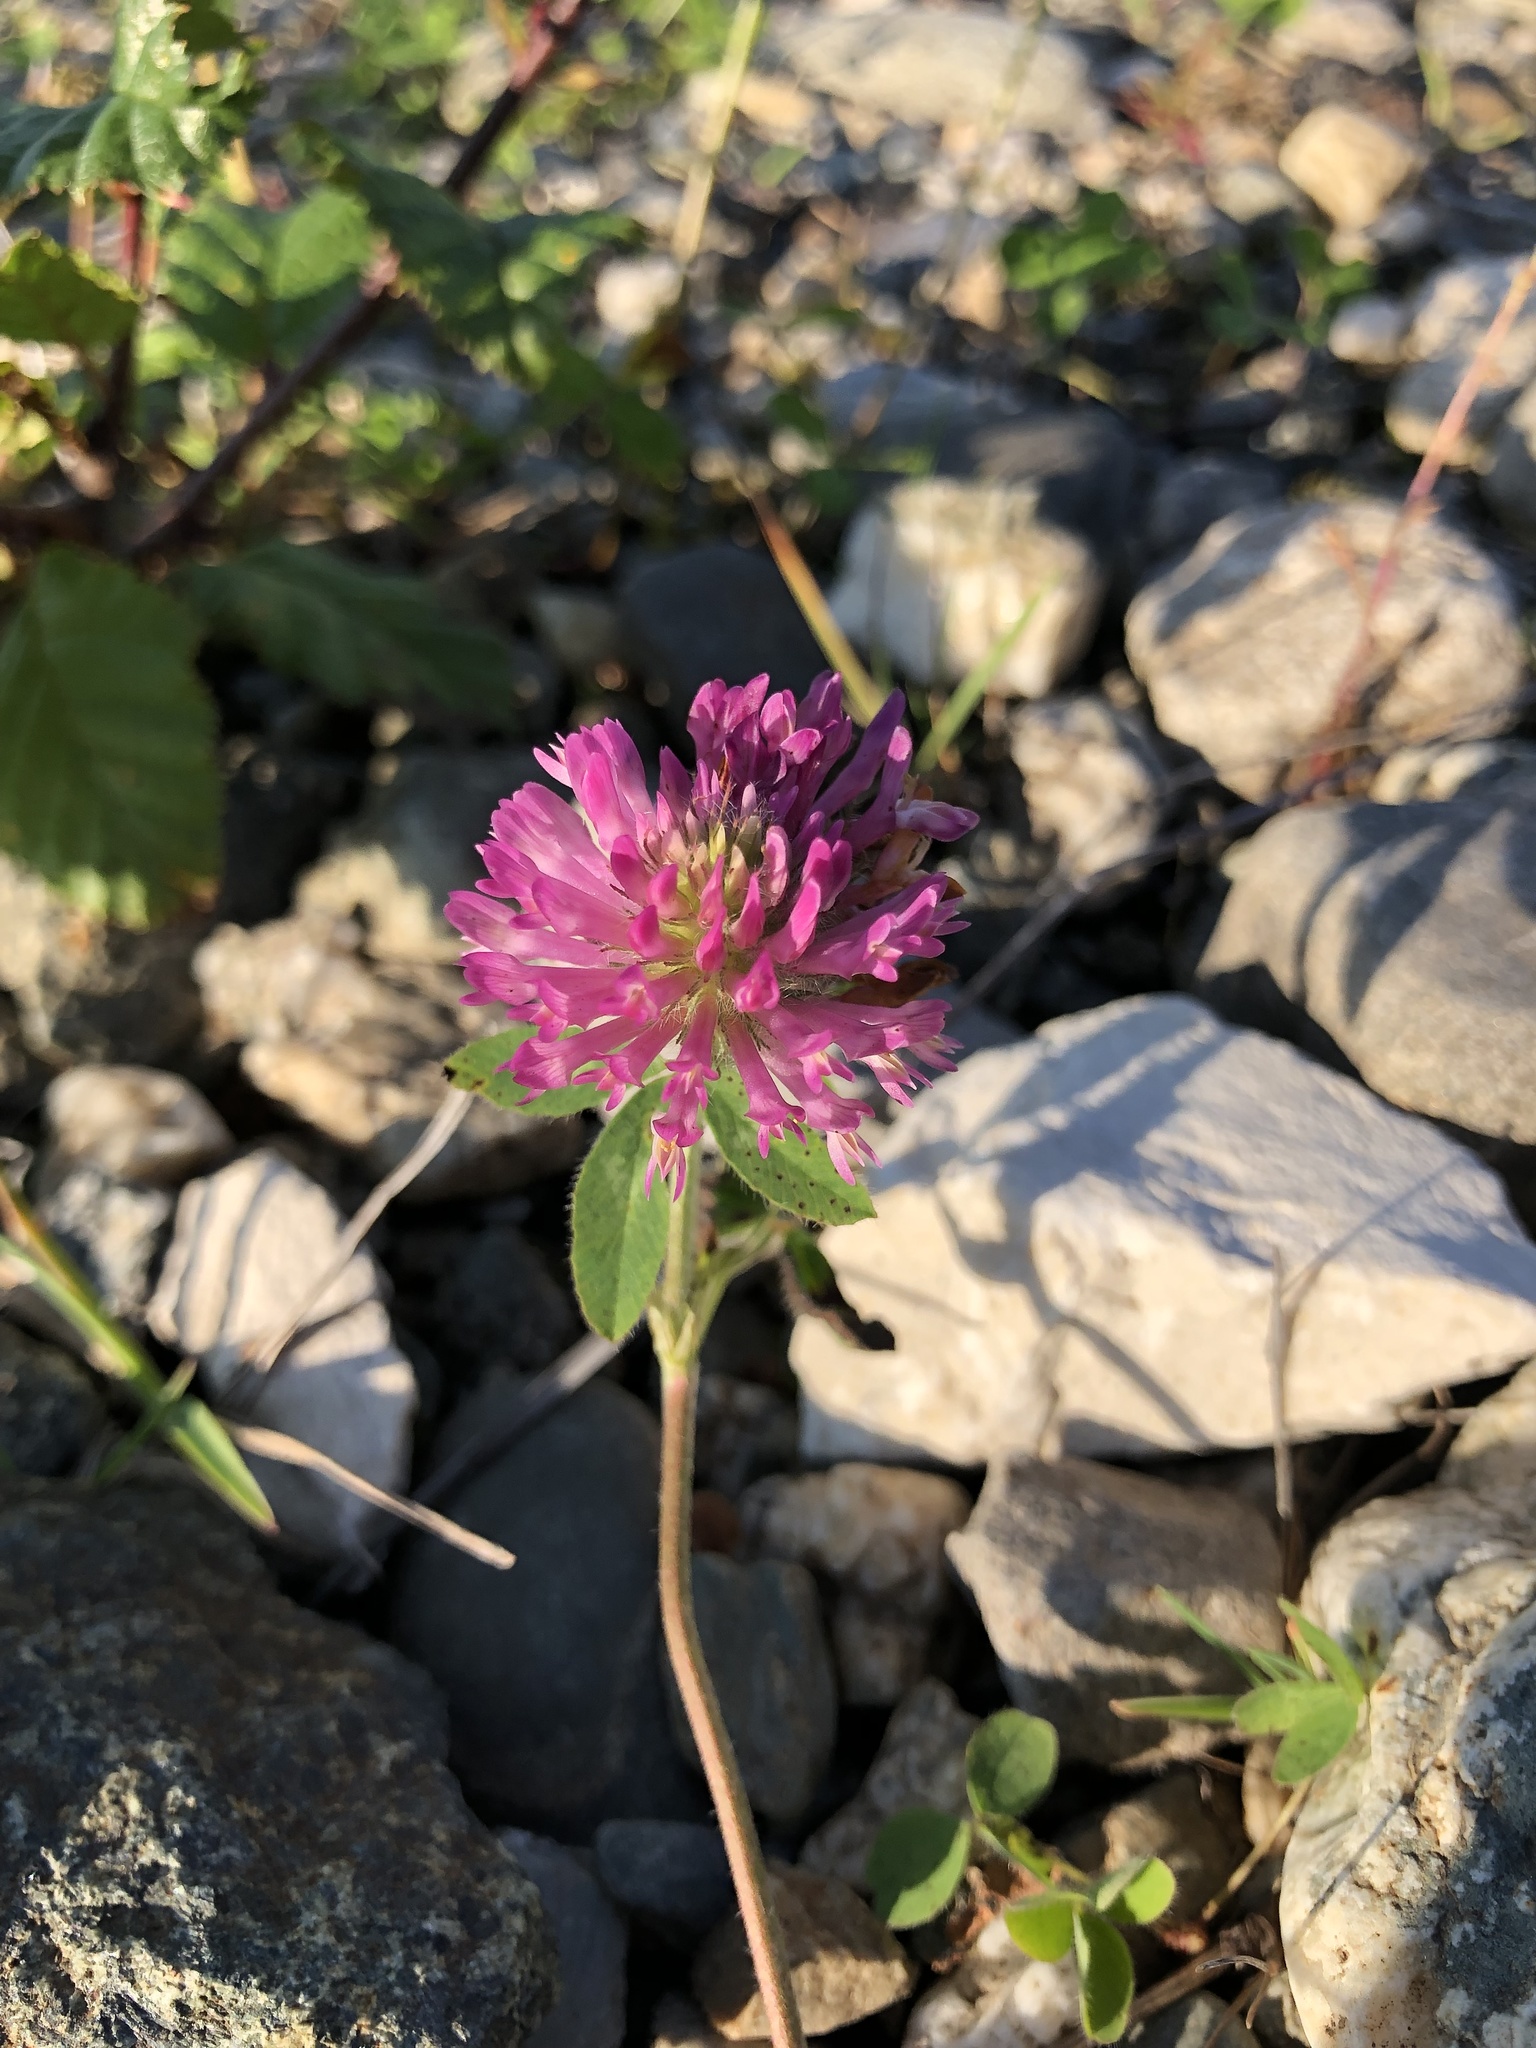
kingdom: Plantae
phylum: Tracheophyta
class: Magnoliopsida
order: Fabales
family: Fabaceae
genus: Trifolium
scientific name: Trifolium pratense
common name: Red clover
